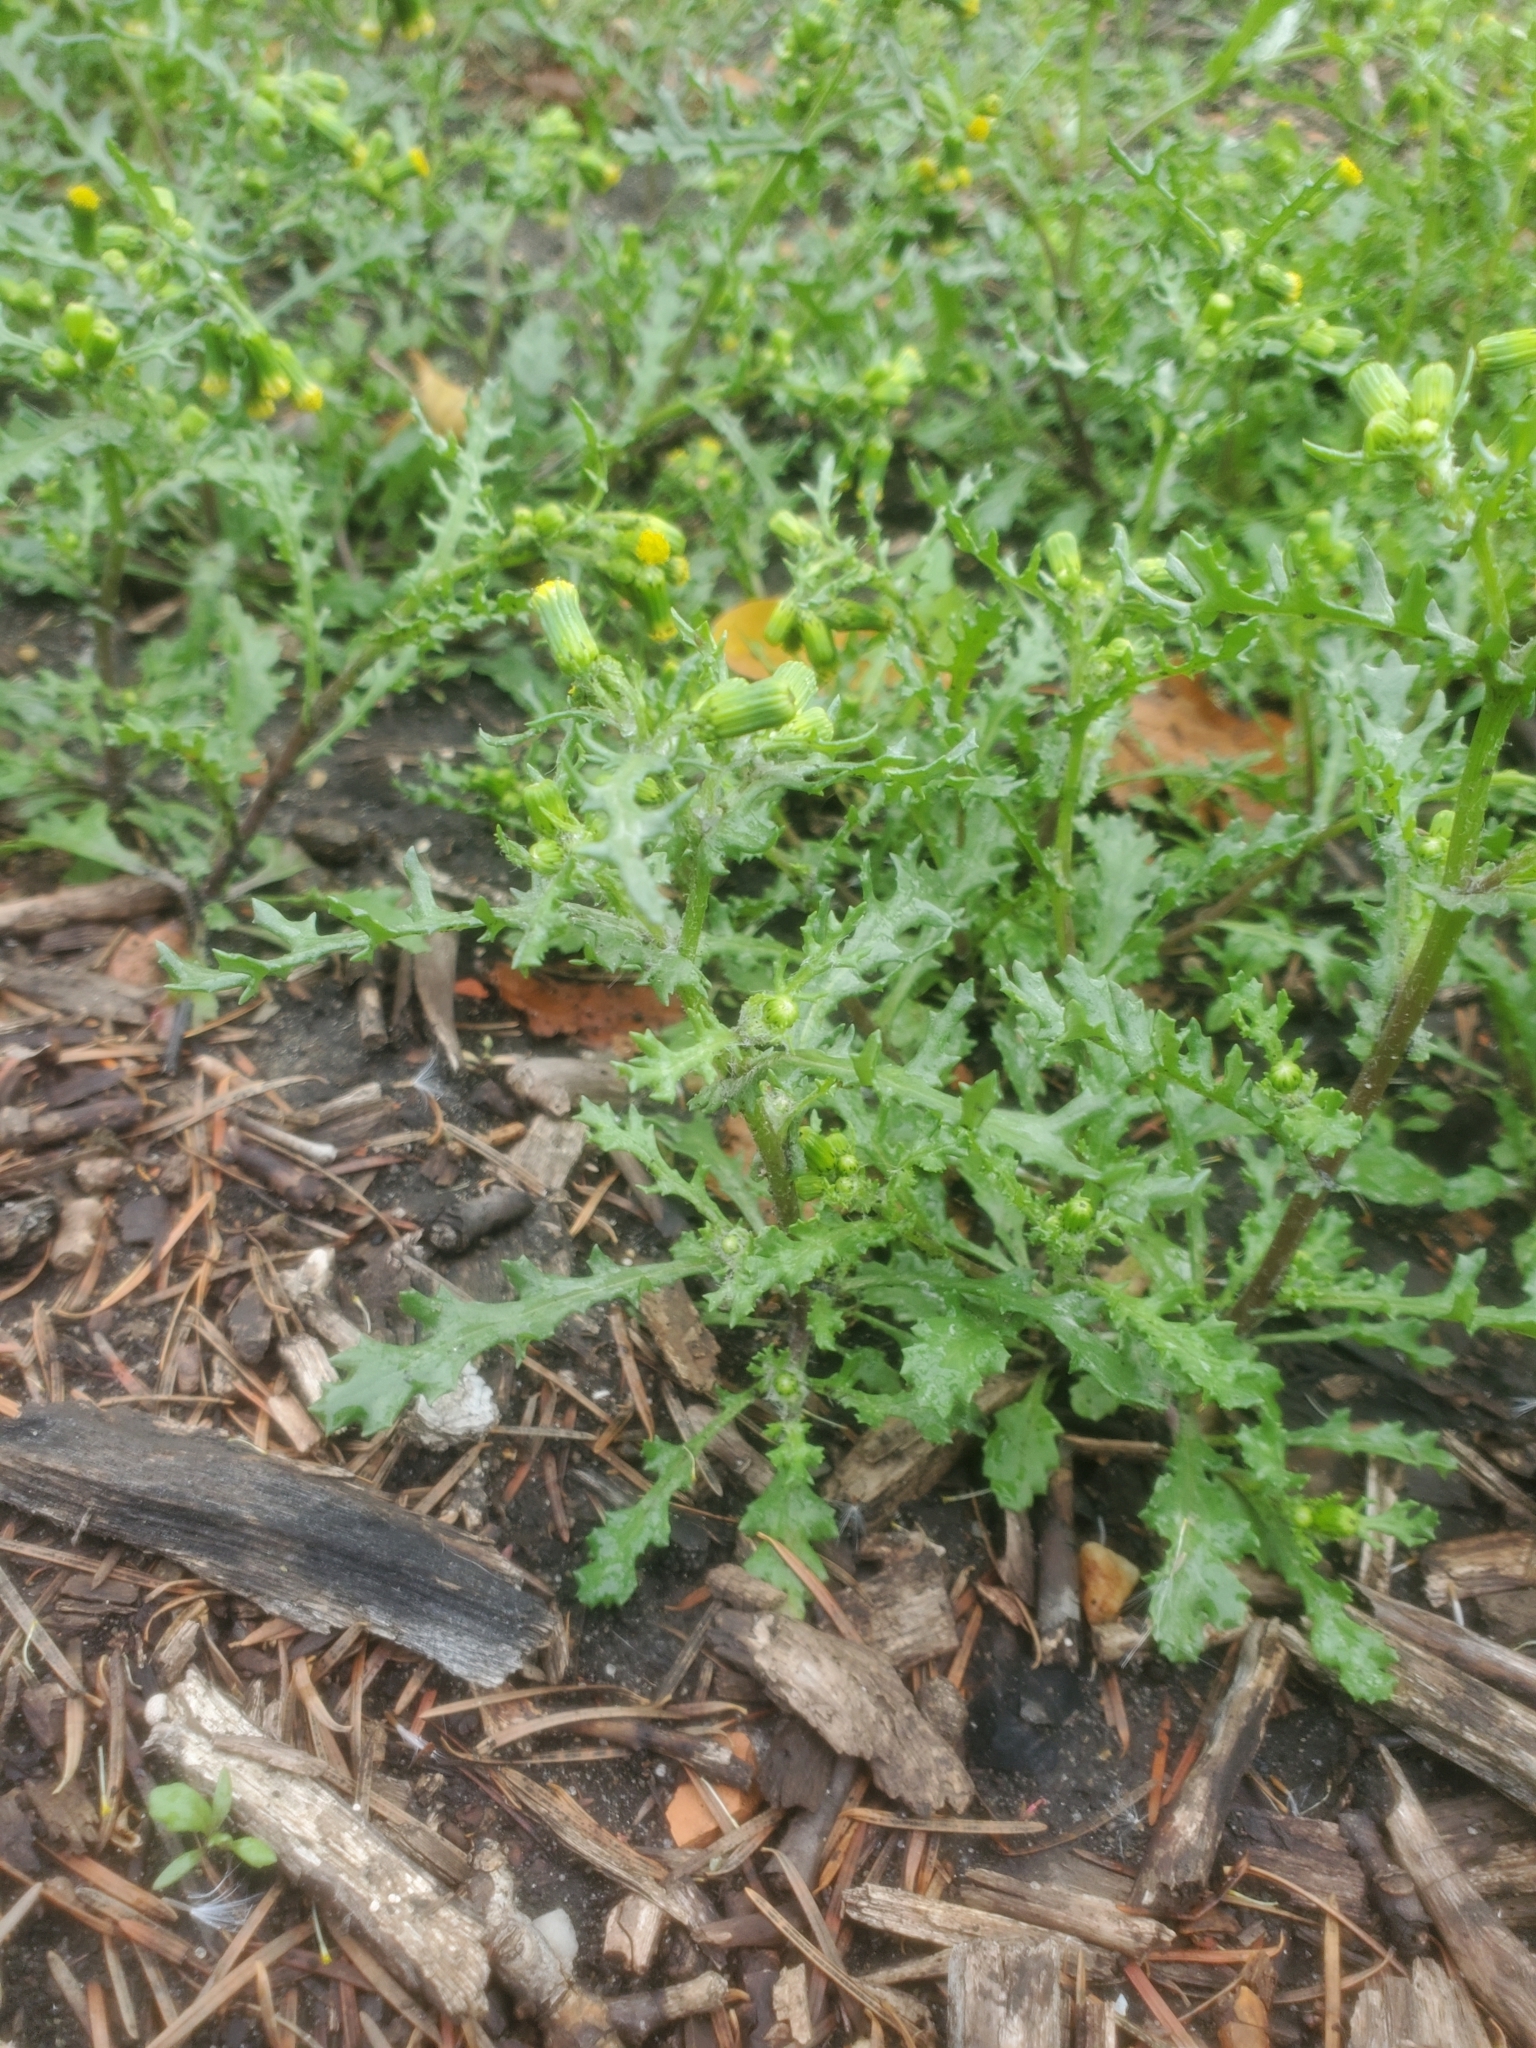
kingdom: Plantae
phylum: Tracheophyta
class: Magnoliopsida
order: Asterales
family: Asteraceae
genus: Senecio
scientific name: Senecio vulgaris
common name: Old-man-in-the-spring
